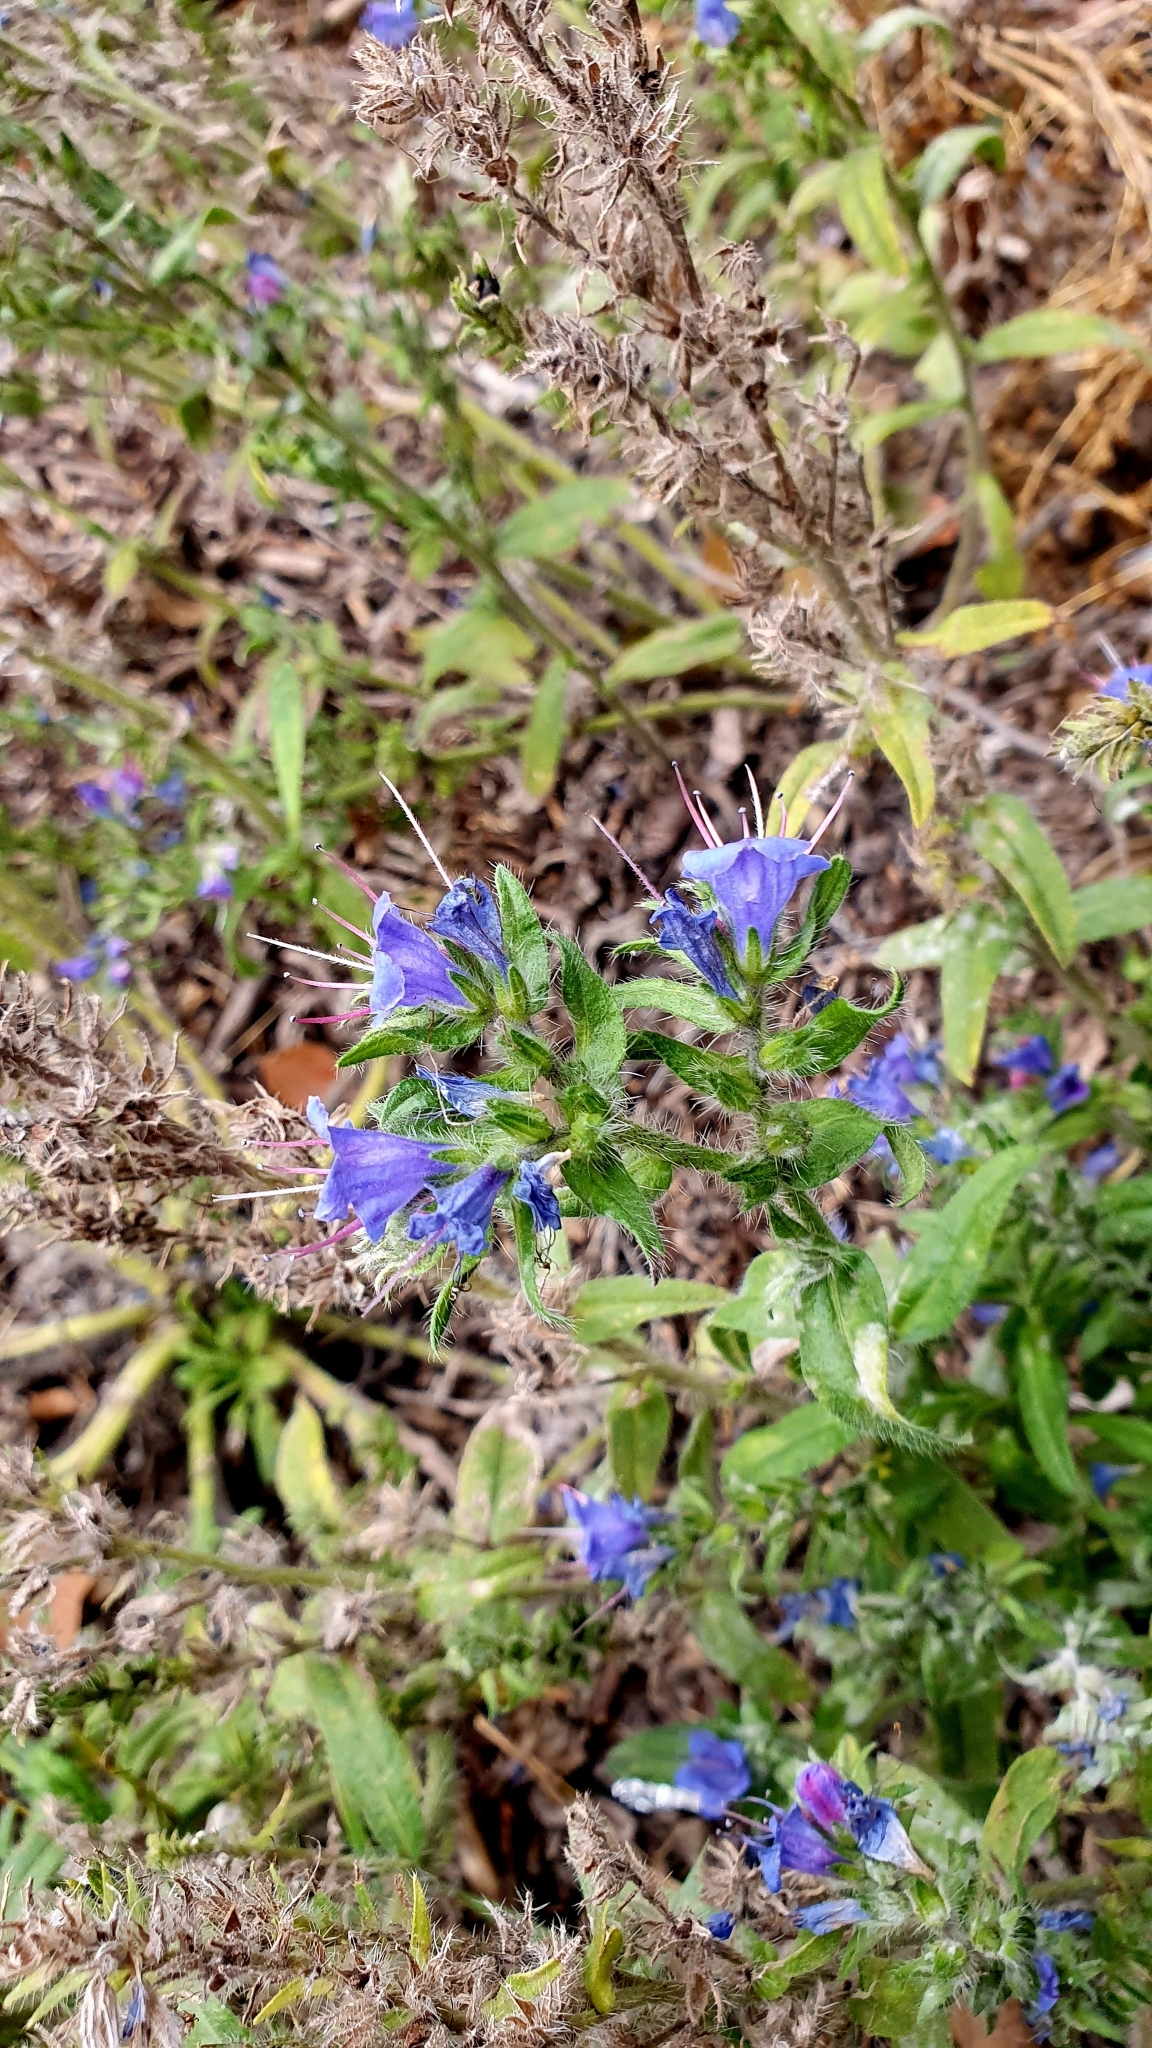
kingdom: Plantae
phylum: Tracheophyta
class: Magnoliopsida
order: Boraginales
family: Boraginaceae
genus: Echium
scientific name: Echium vulgare
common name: Common viper's bugloss
